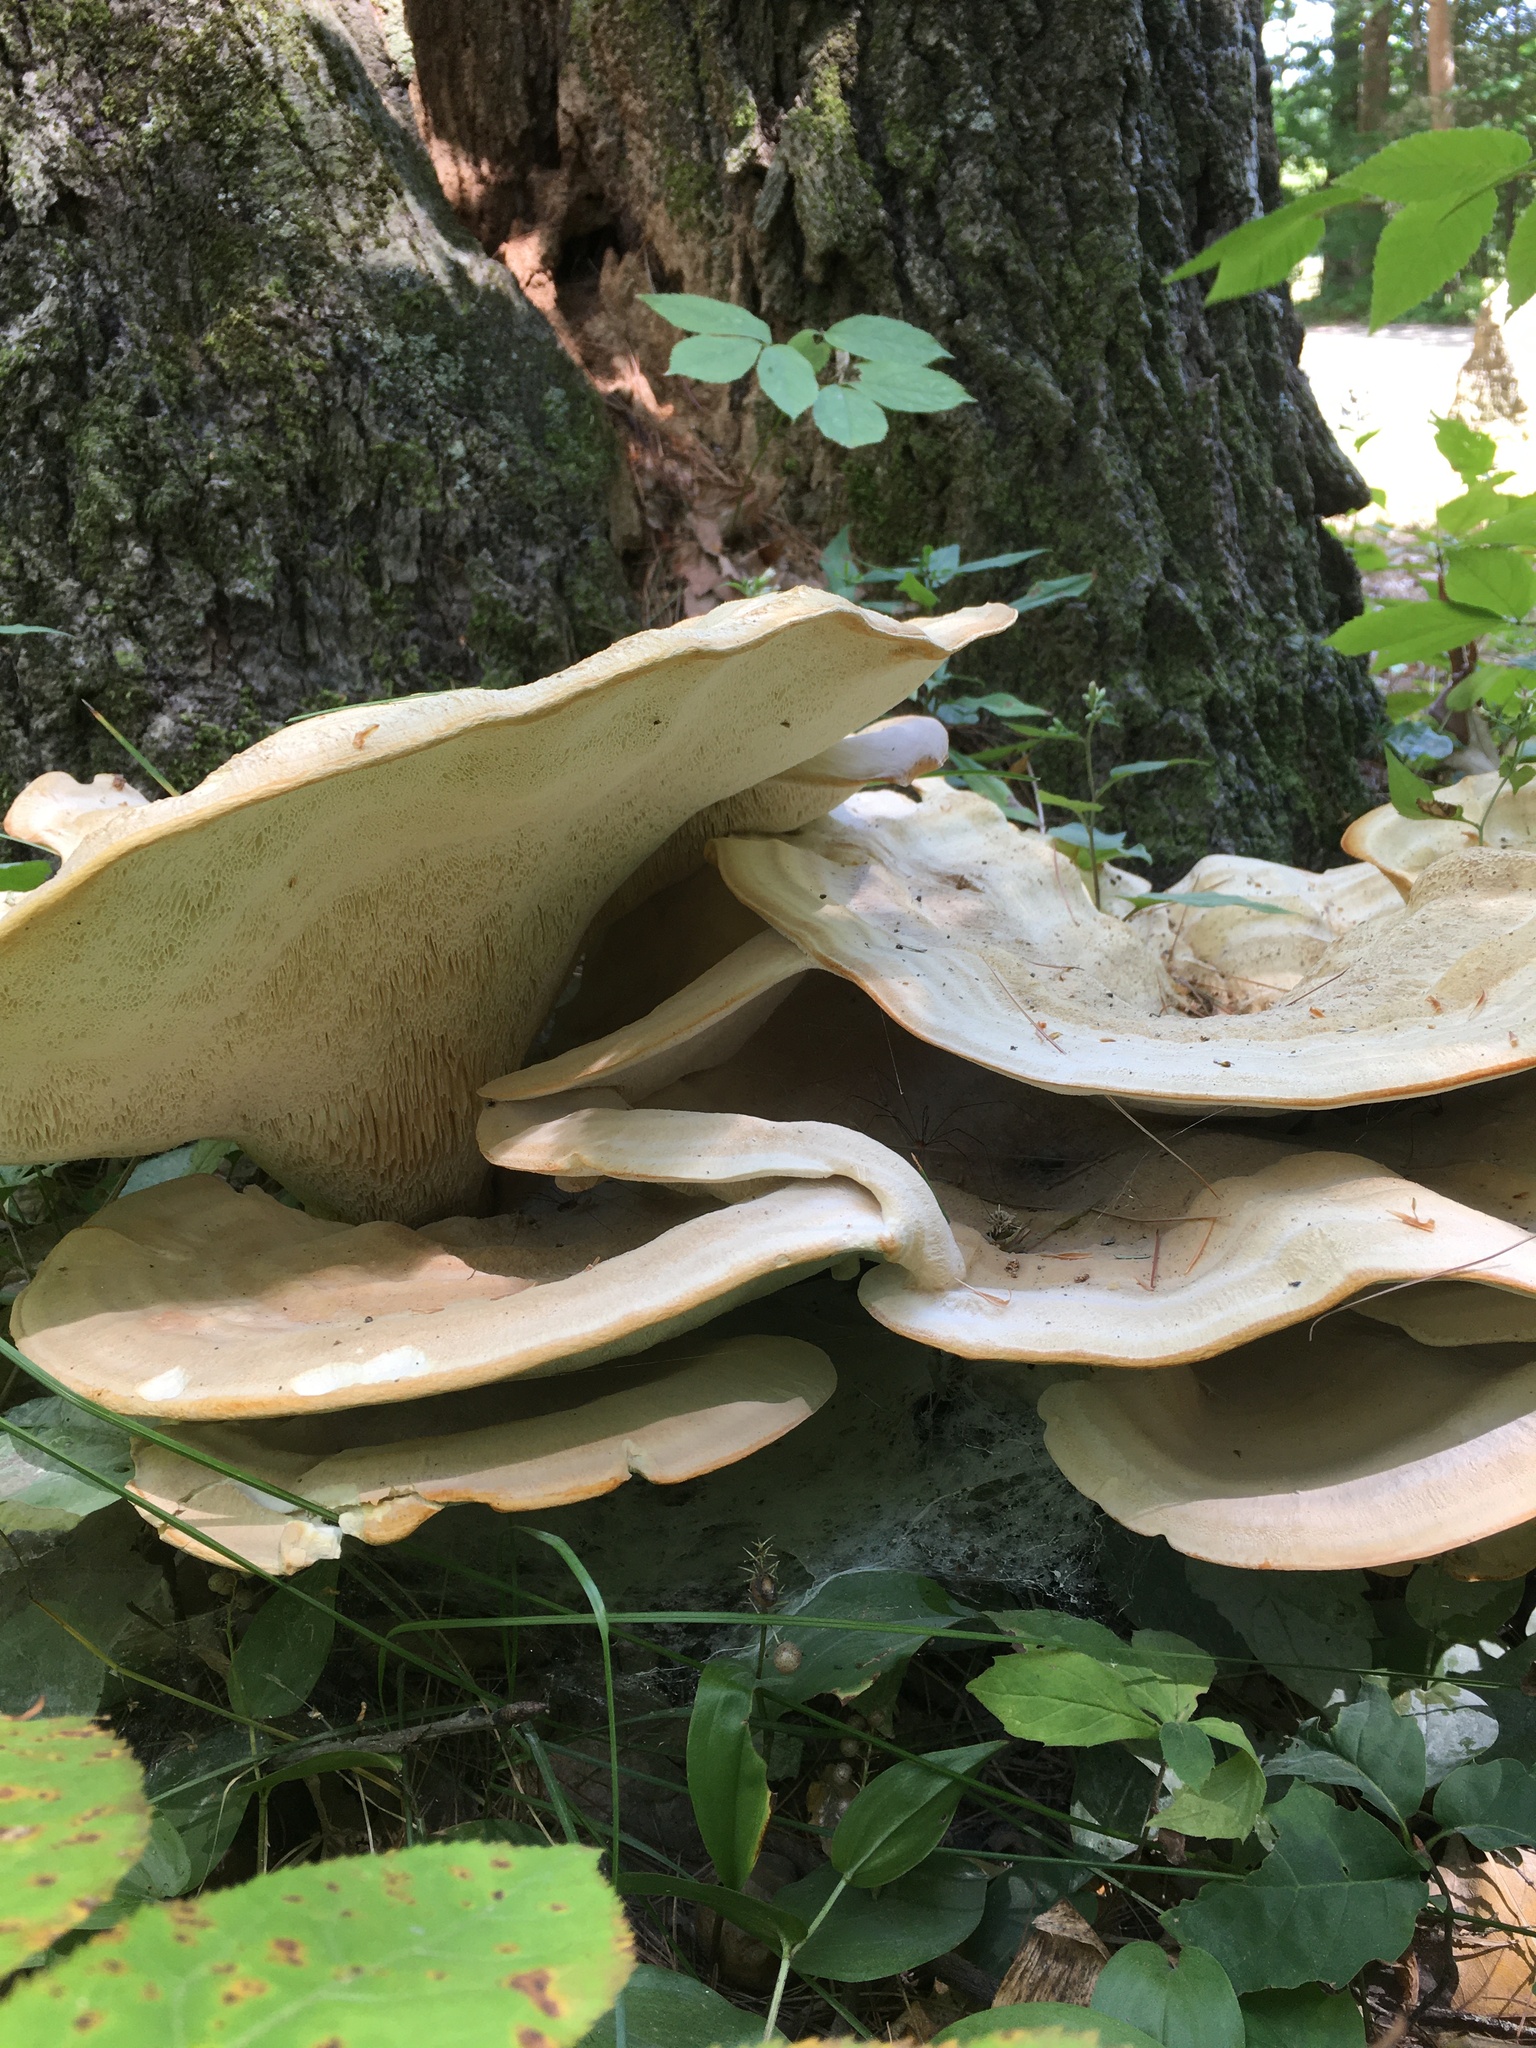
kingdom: Fungi
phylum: Basidiomycota
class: Agaricomycetes
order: Russulales
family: Bondarzewiaceae
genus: Bondarzewia
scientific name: Bondarzewia berkeleyi
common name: Berkeley's polypore
